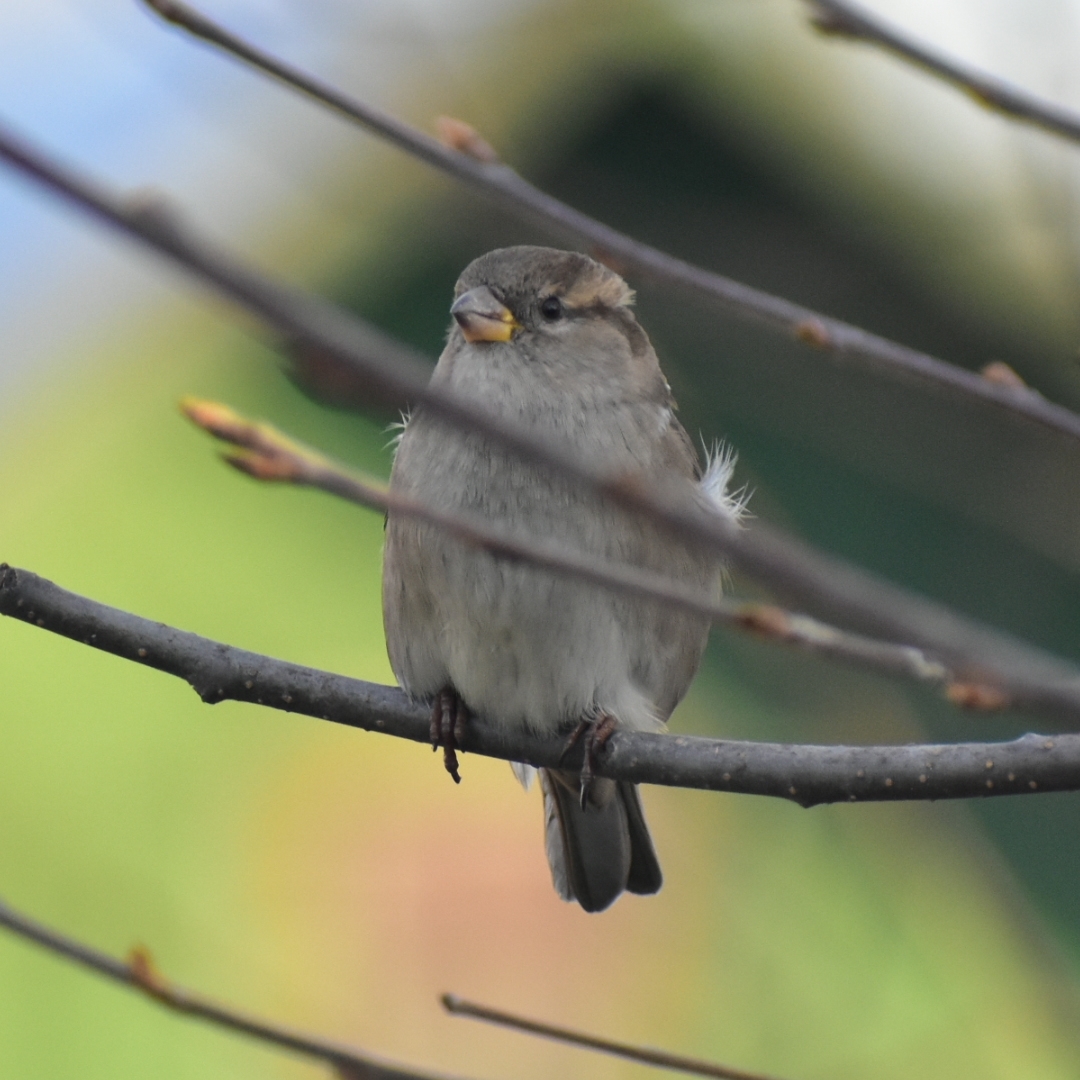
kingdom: Animalia
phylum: Chordata
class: Aves
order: Passeriformes
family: Passeridae
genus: Passer
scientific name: Passer domesticus
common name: House sparrow
